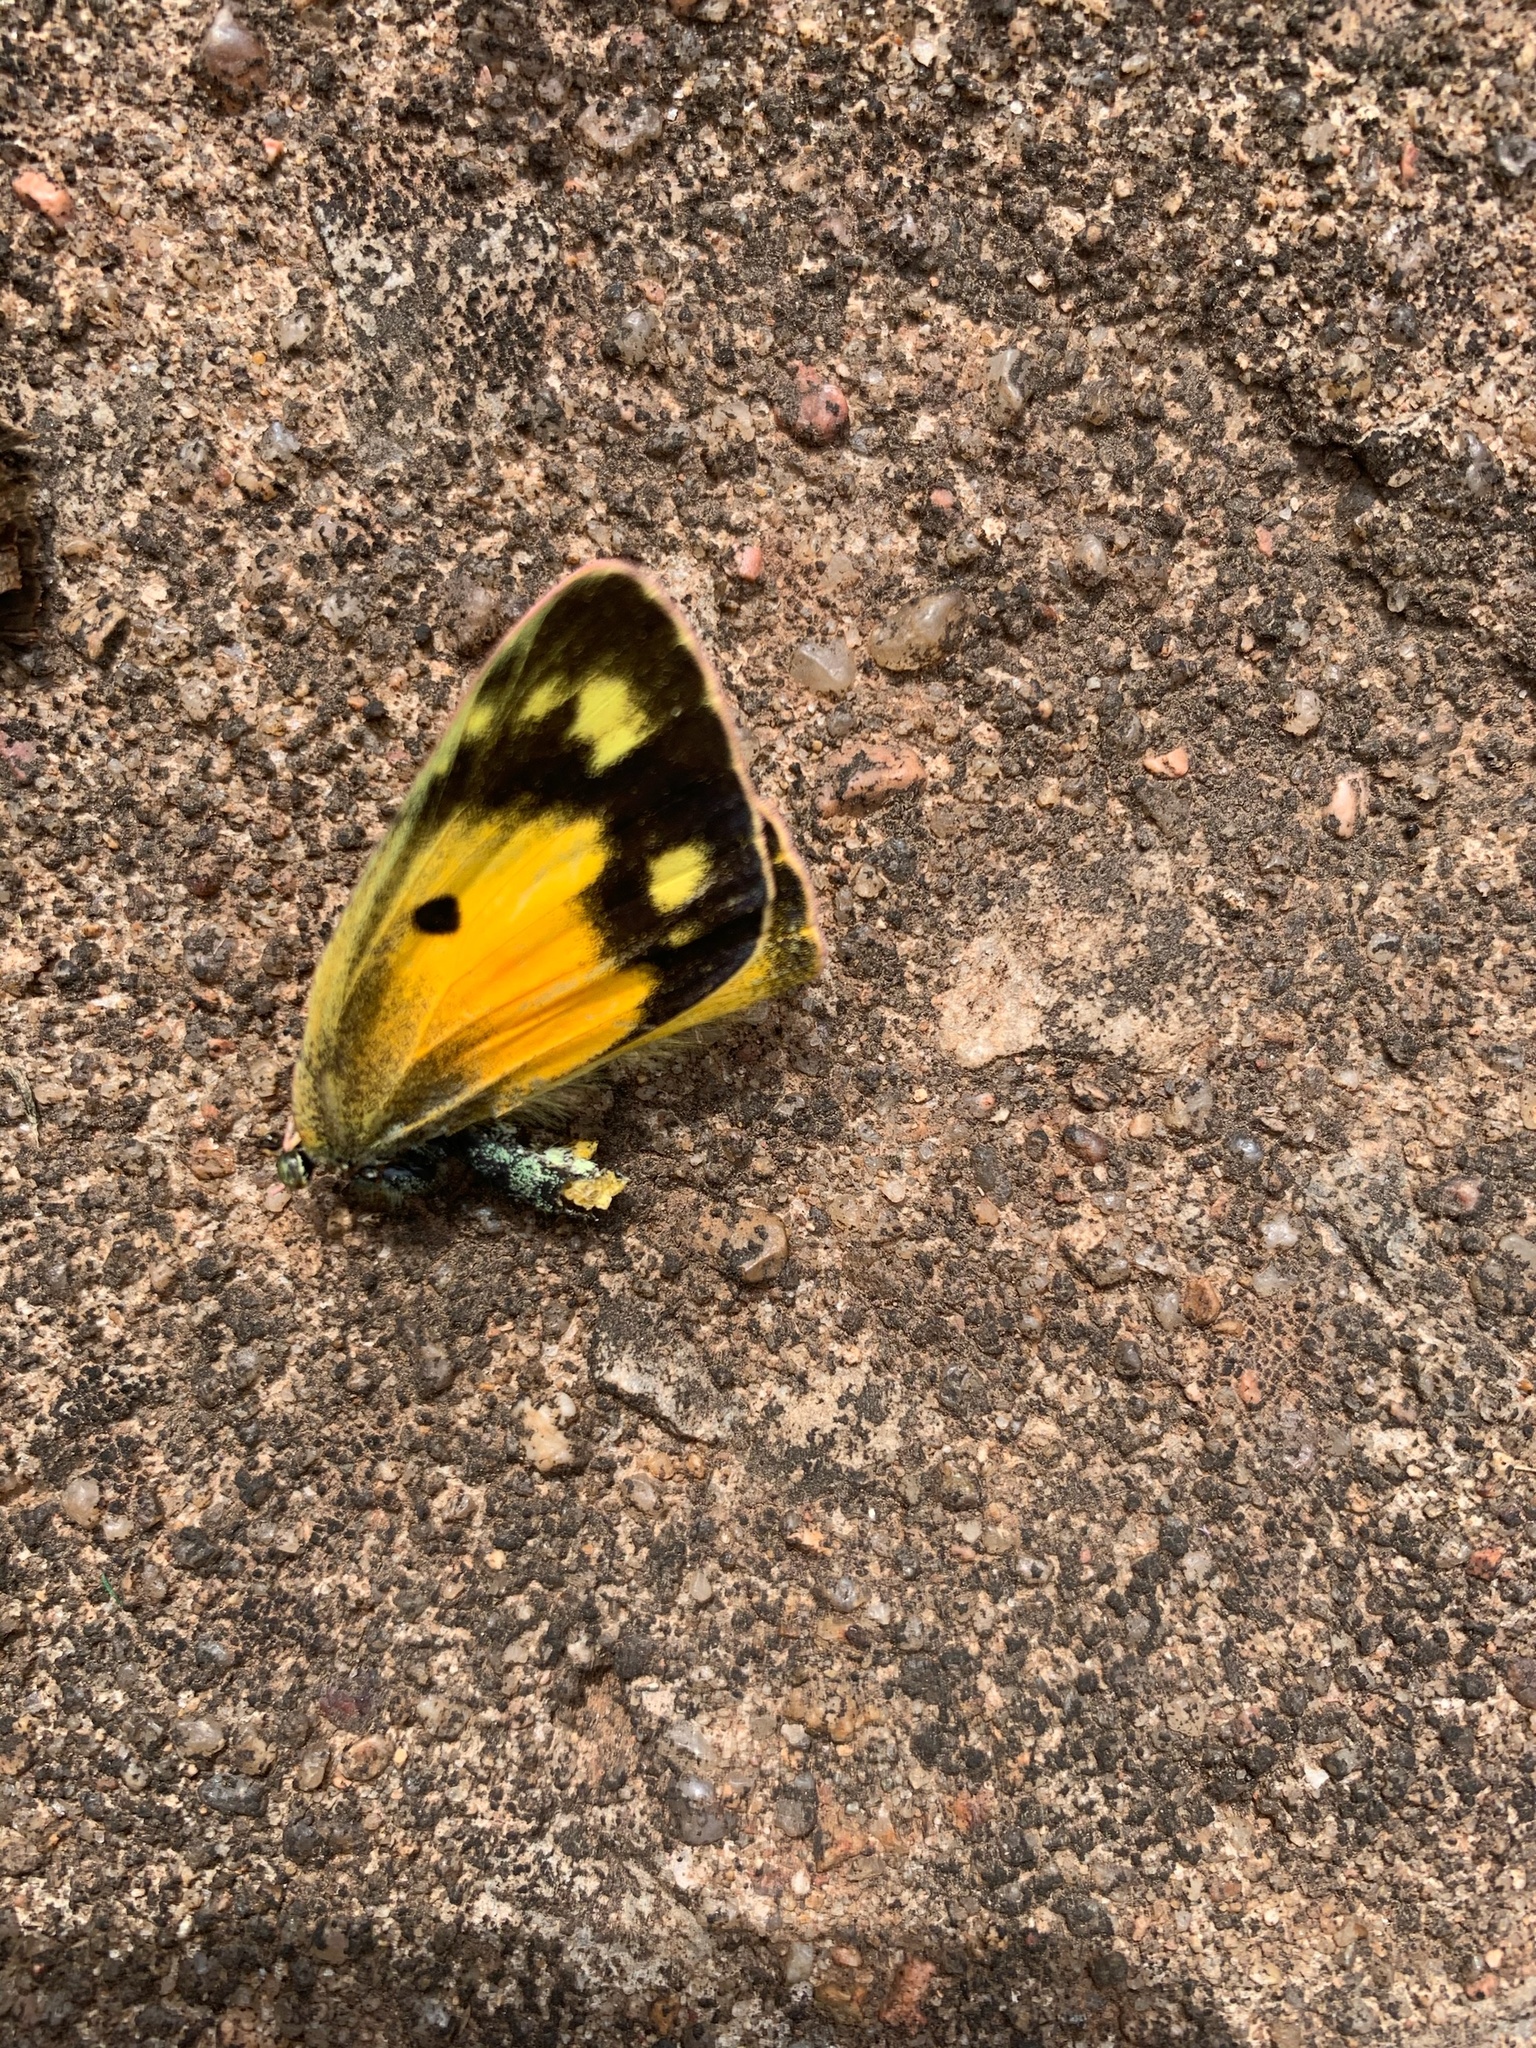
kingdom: Animalia
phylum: Arthropoda
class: Insecta
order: Lepidoptera
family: Pieridae
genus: Colias
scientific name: Colias eurytheme
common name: Alfalfa butterfly
